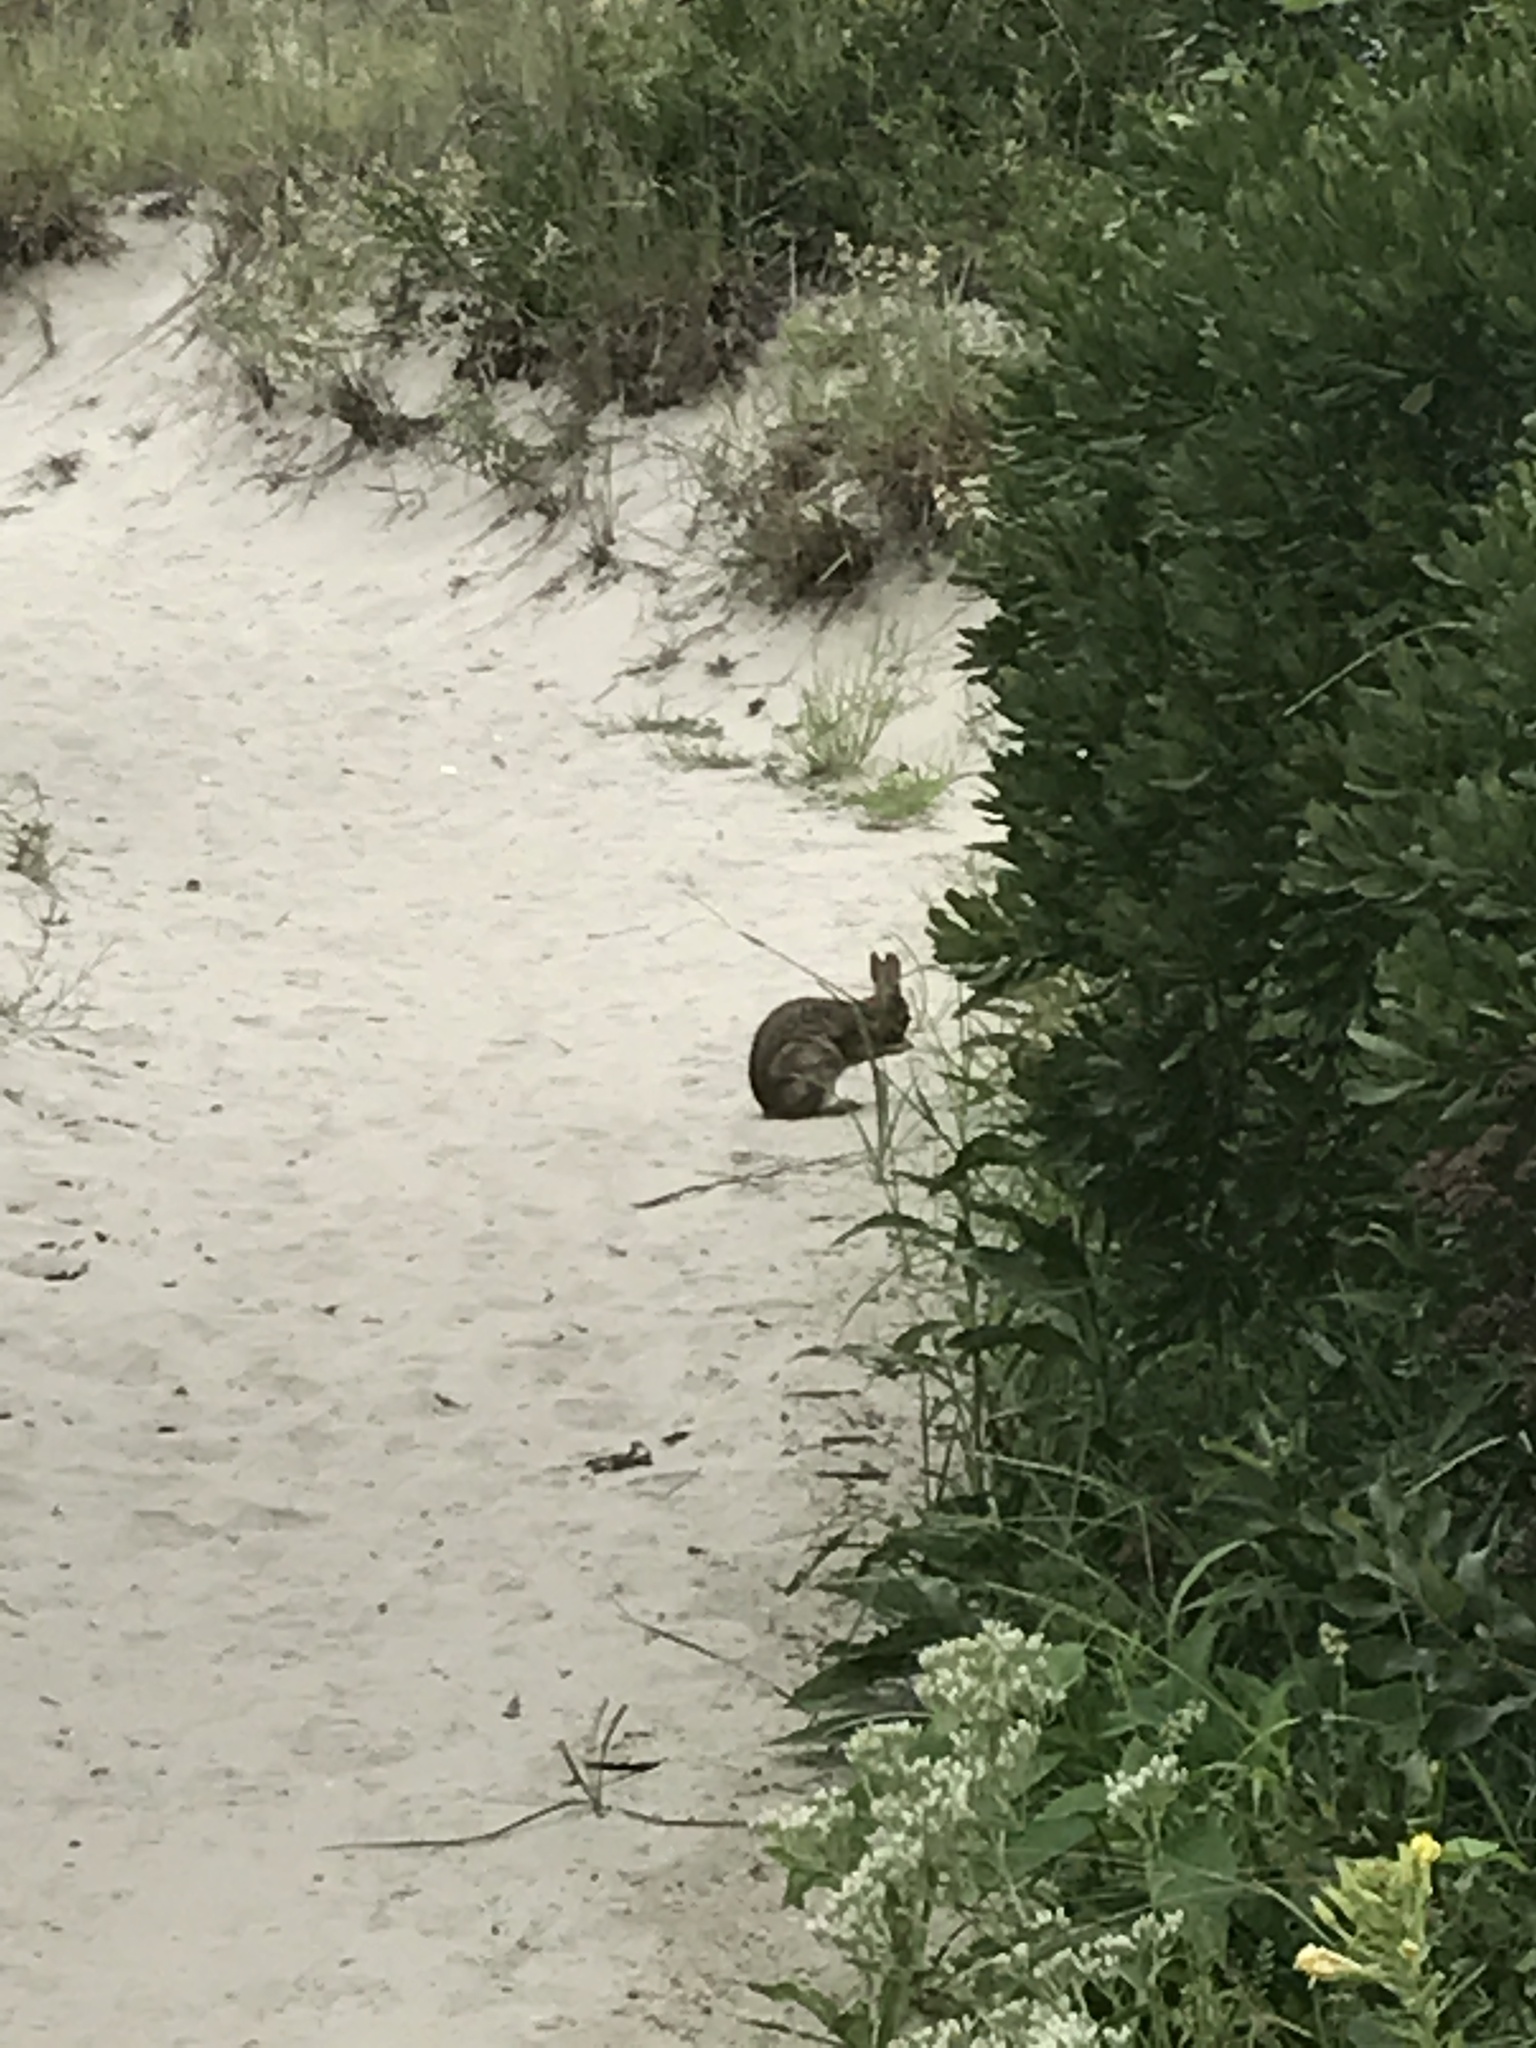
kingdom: Animalia
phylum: Chordata
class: Mammalia
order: Lagomorpha
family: Leporidae
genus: Sylvilagus
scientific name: Sylvilagus floridanus
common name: Eastern cottontail
